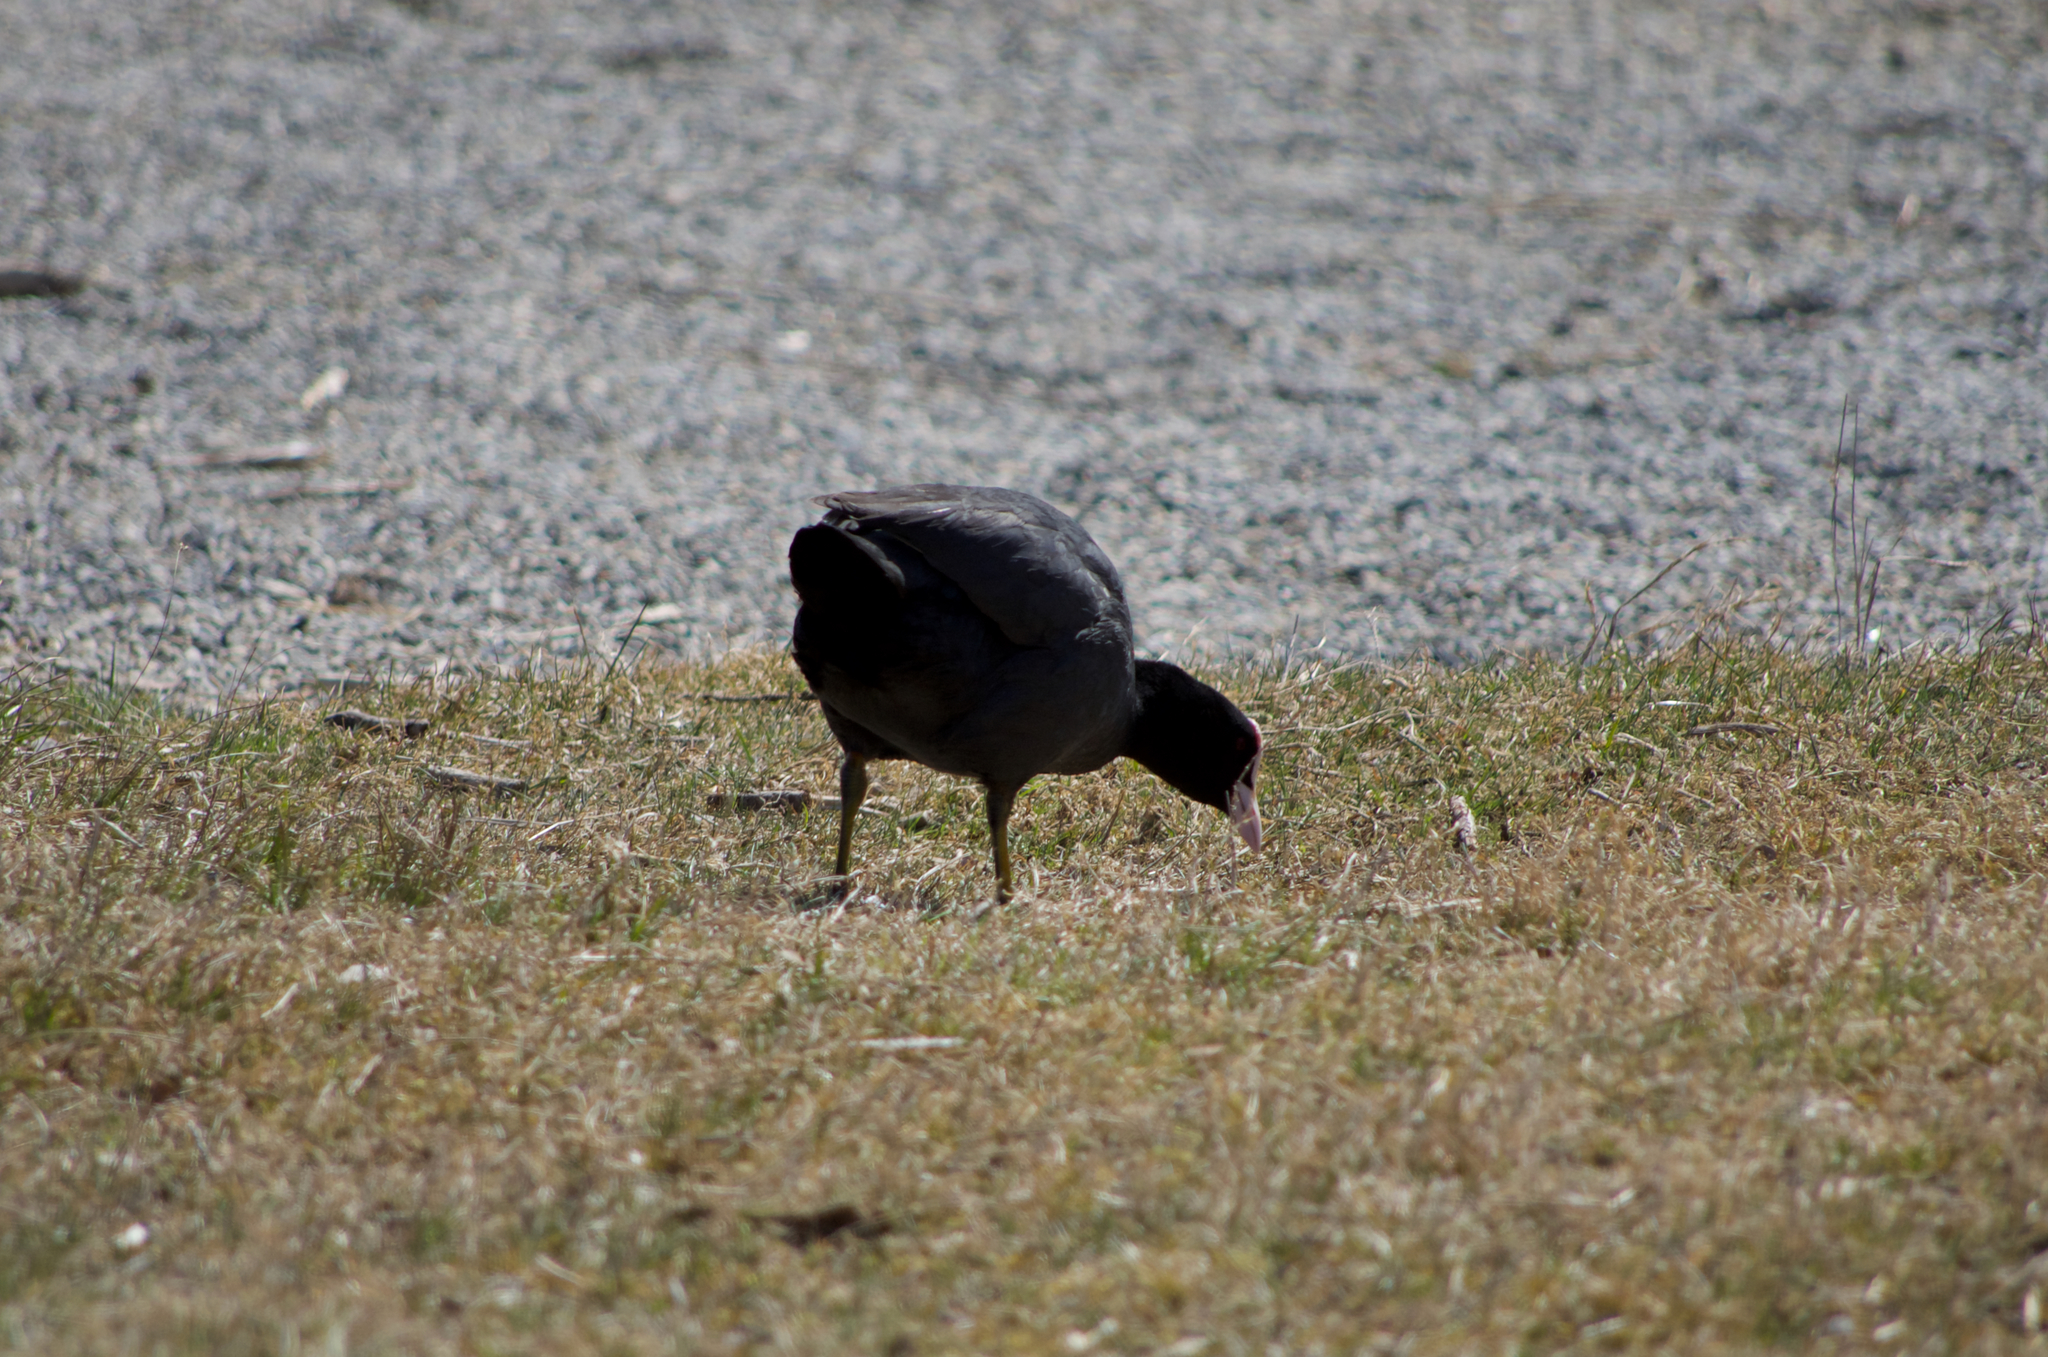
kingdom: Animalia
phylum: Chordata
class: Aves
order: Gruiformes
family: Rallidae
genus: Fulica
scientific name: Fulica atra
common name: Eurasian coot
